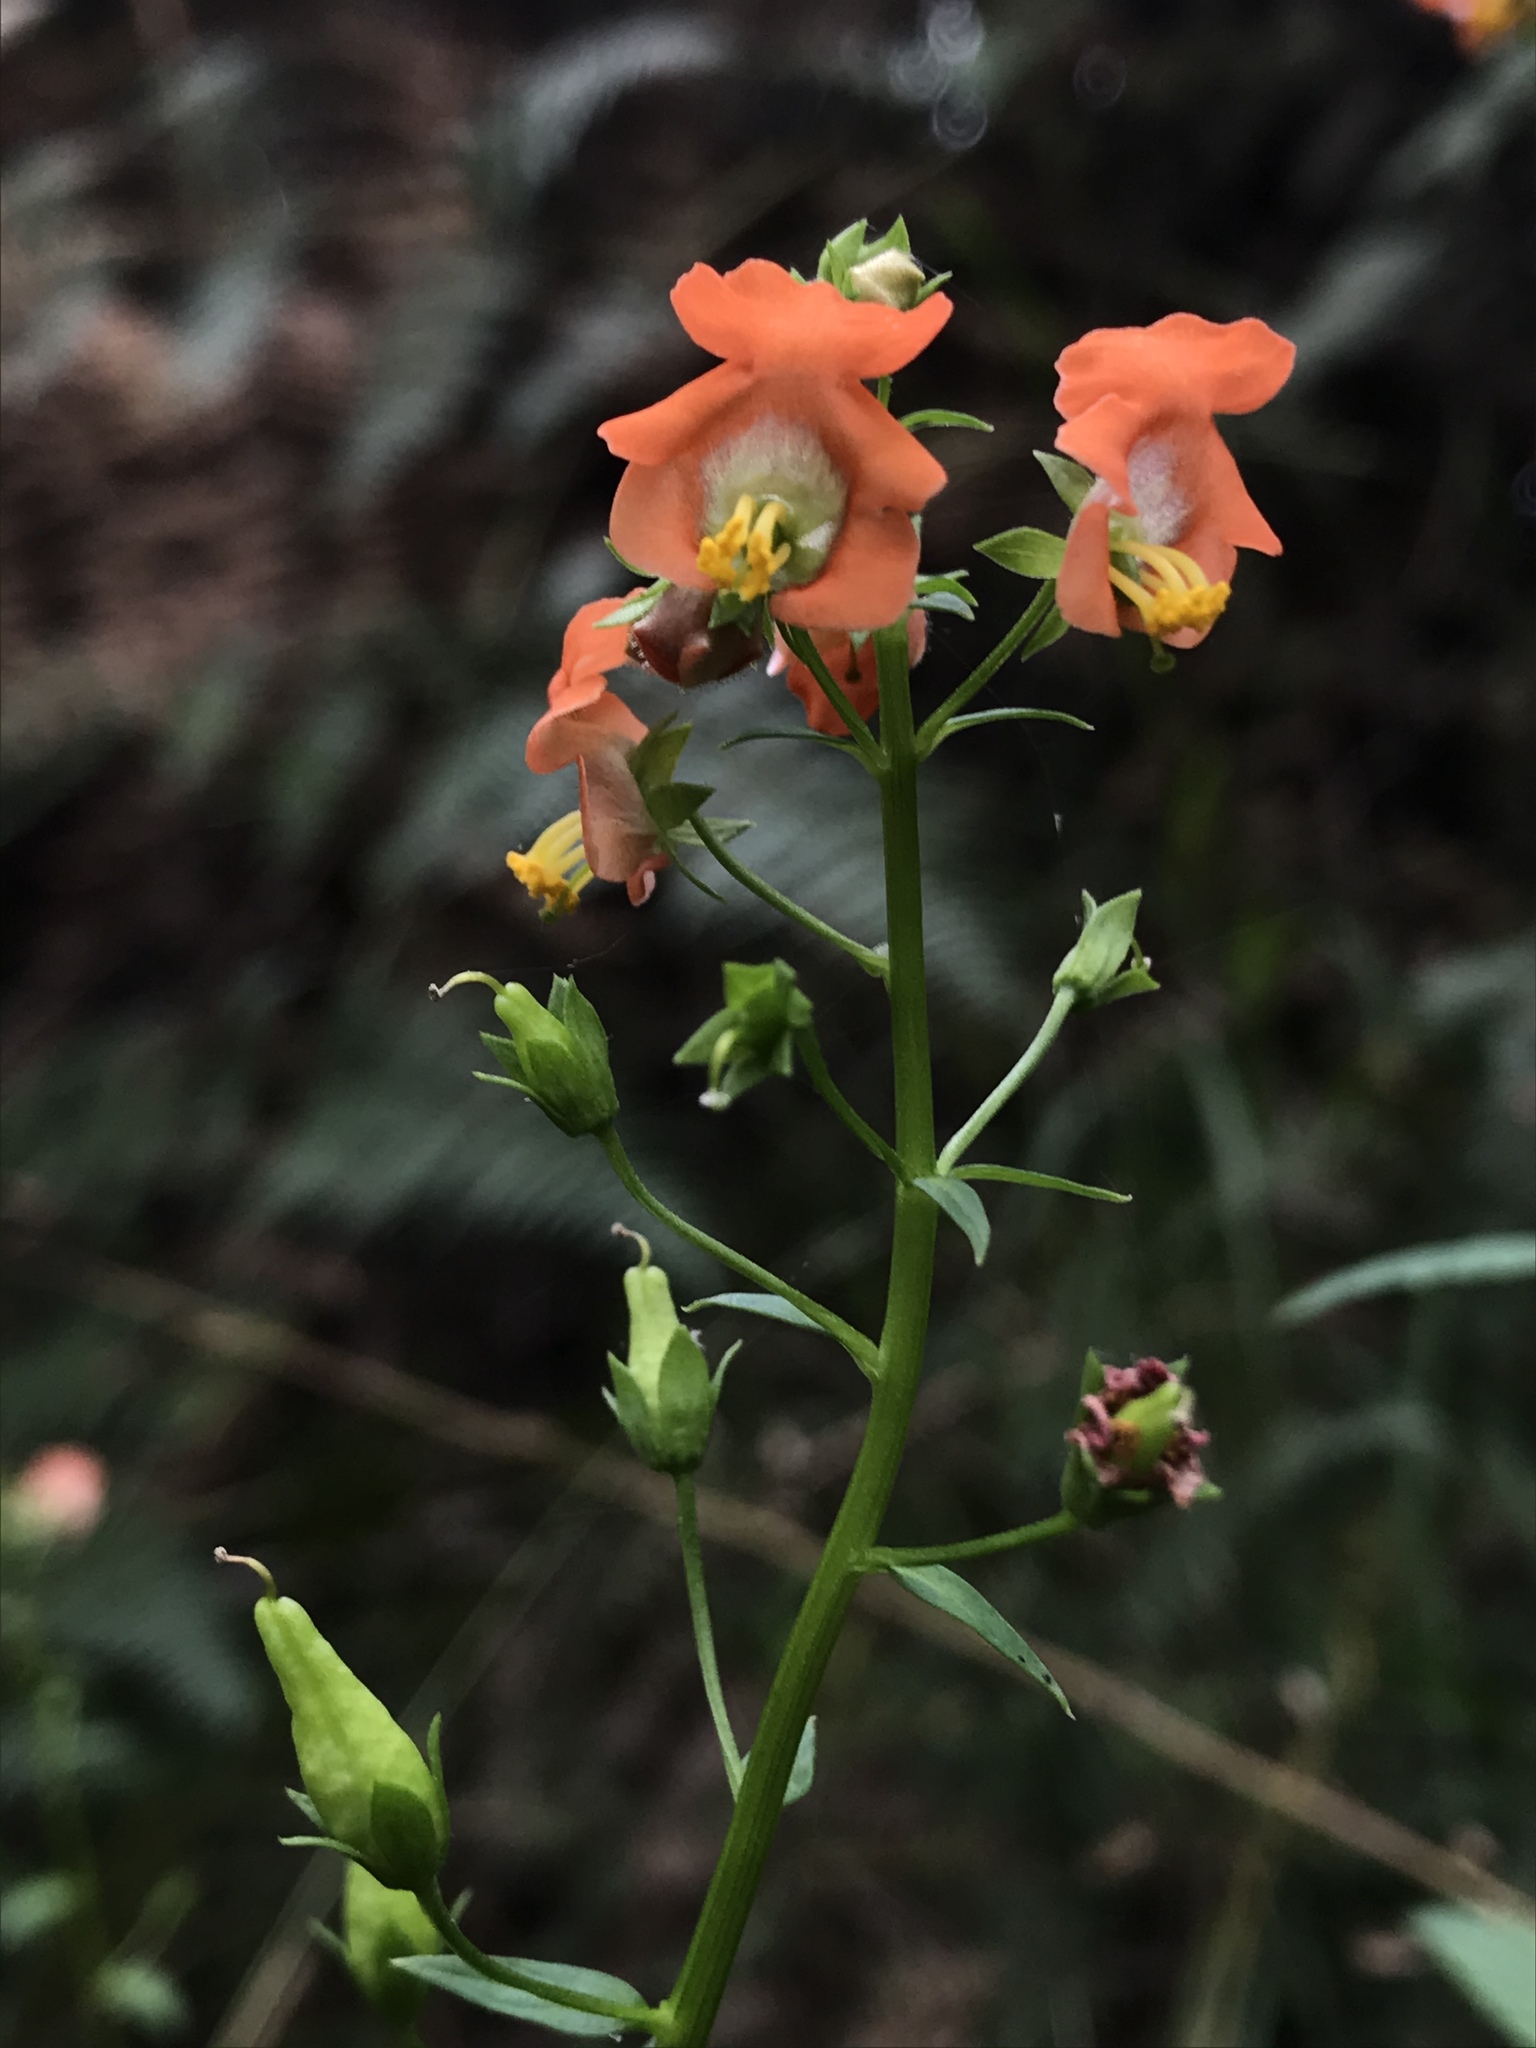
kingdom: Plantae
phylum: Tracheophyta
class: Magnoliopsida
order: Lamiales
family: Scrophulariaceae
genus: Alonsoa
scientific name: Alonsoa meridionalis
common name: Maskflower
